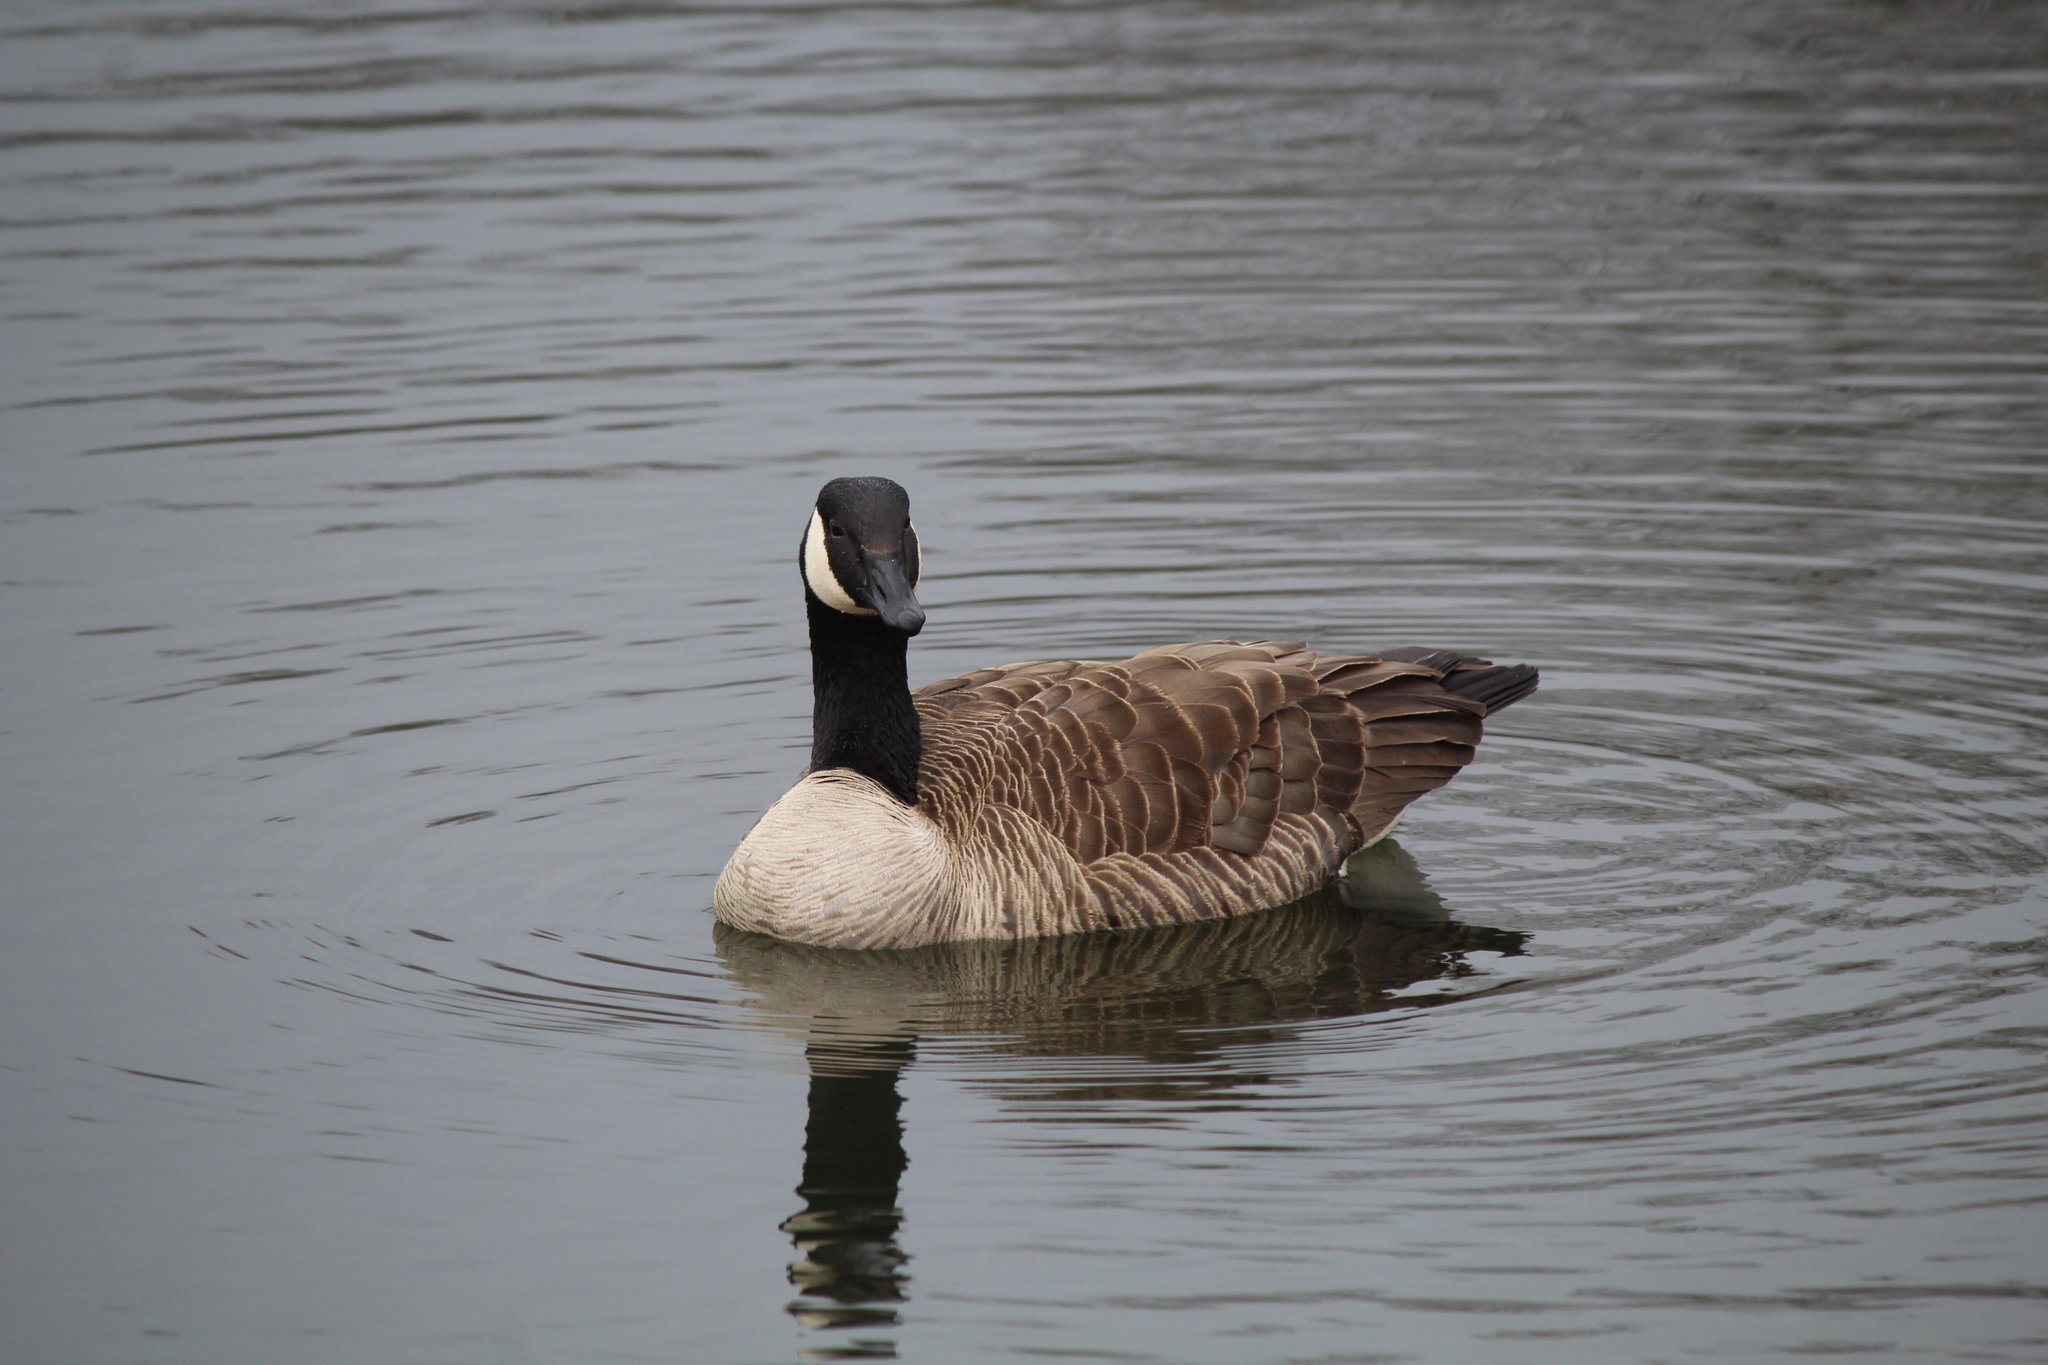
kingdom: Animalia
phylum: Chordata
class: Aves
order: Anseriformes
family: Anatidae
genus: Branta
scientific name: Branta canadensis
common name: Canada goose
